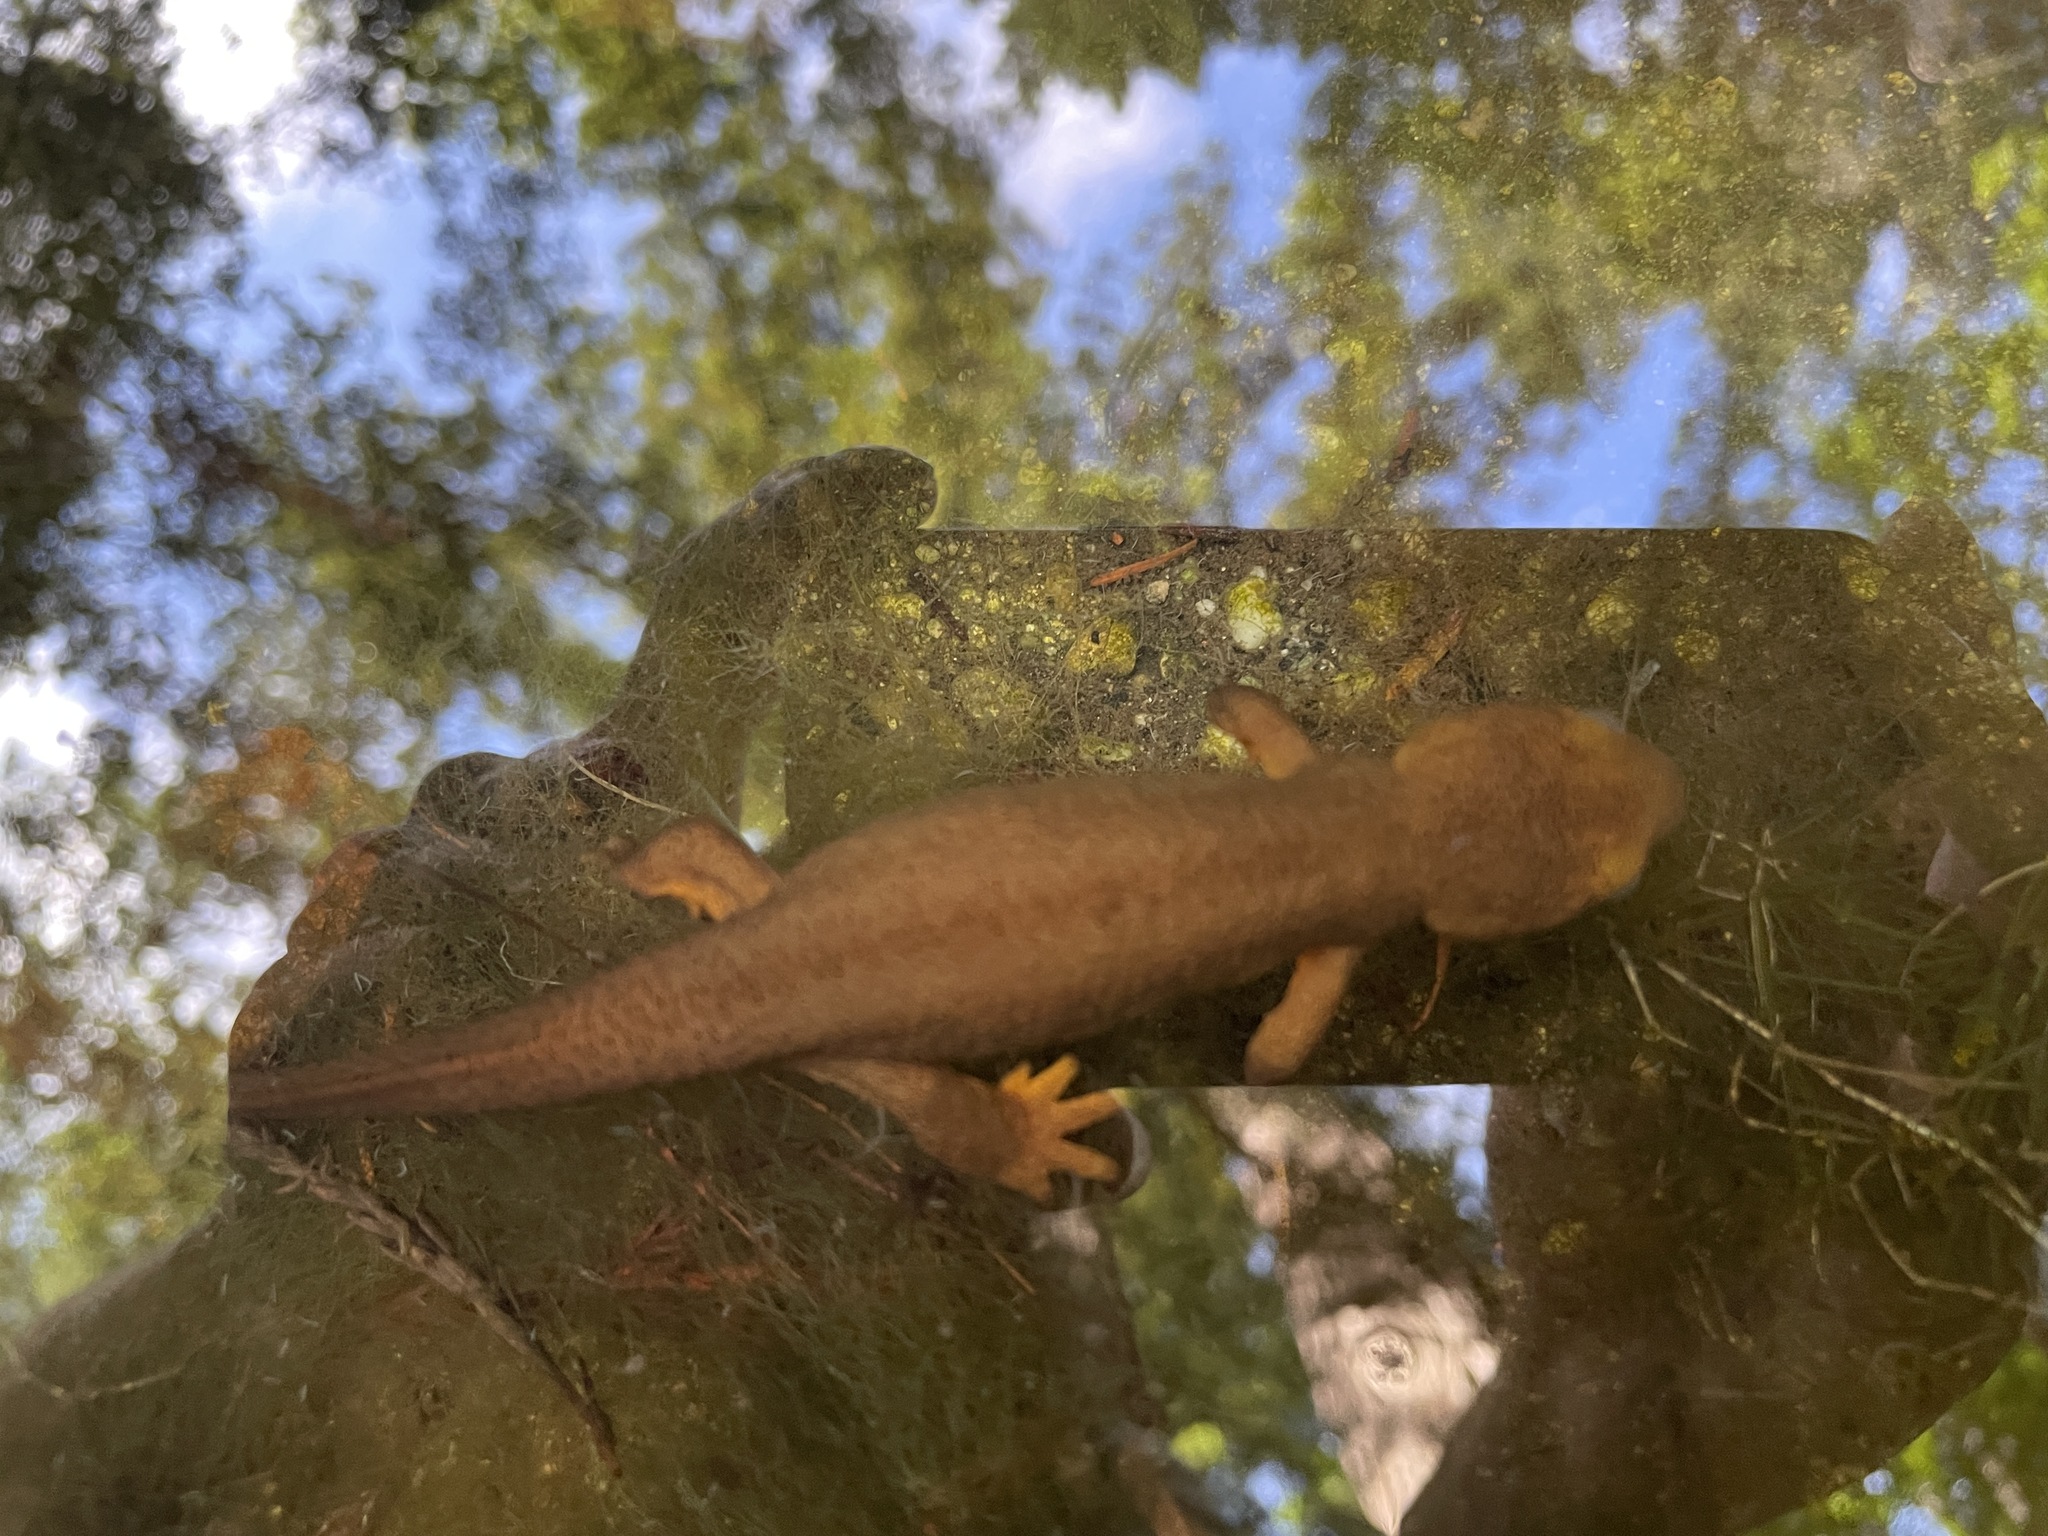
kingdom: Animalia
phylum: Chordata
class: Amphibia
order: Caudata
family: Salamandridae
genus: Taricha
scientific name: Taricha torosa
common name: California newt
